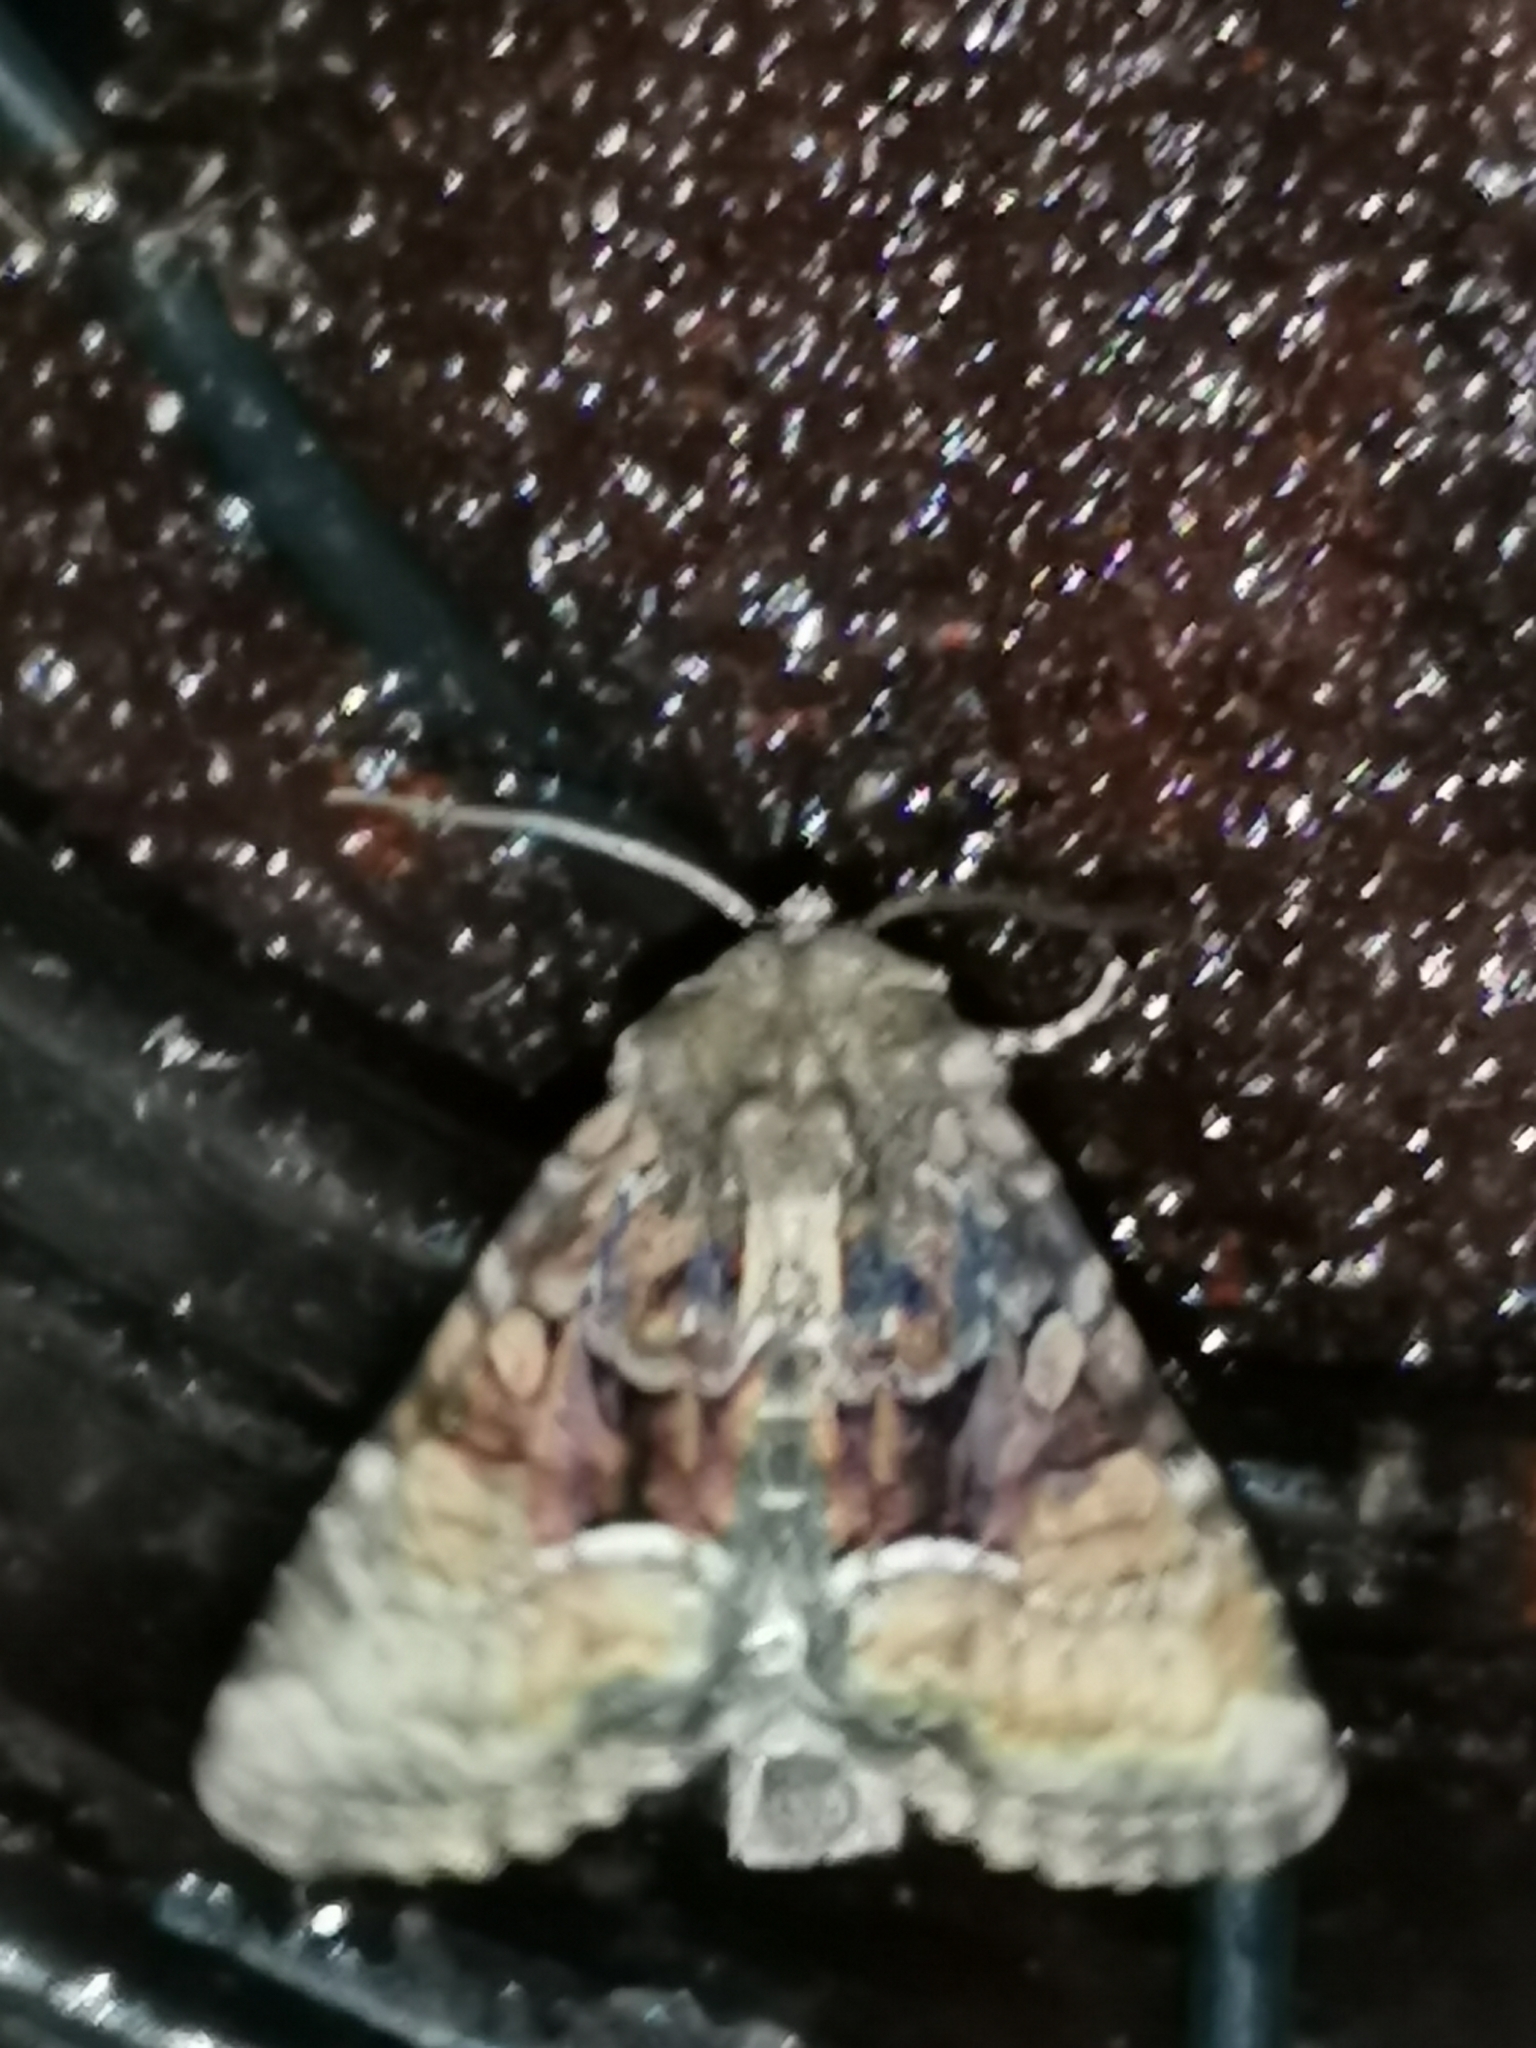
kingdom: Animalia
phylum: Arthropoda
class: Insecta
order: Lepidoptera
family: Noctuidae
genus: Oligia
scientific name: Oligia latruncula
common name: Tawny marbled minor
